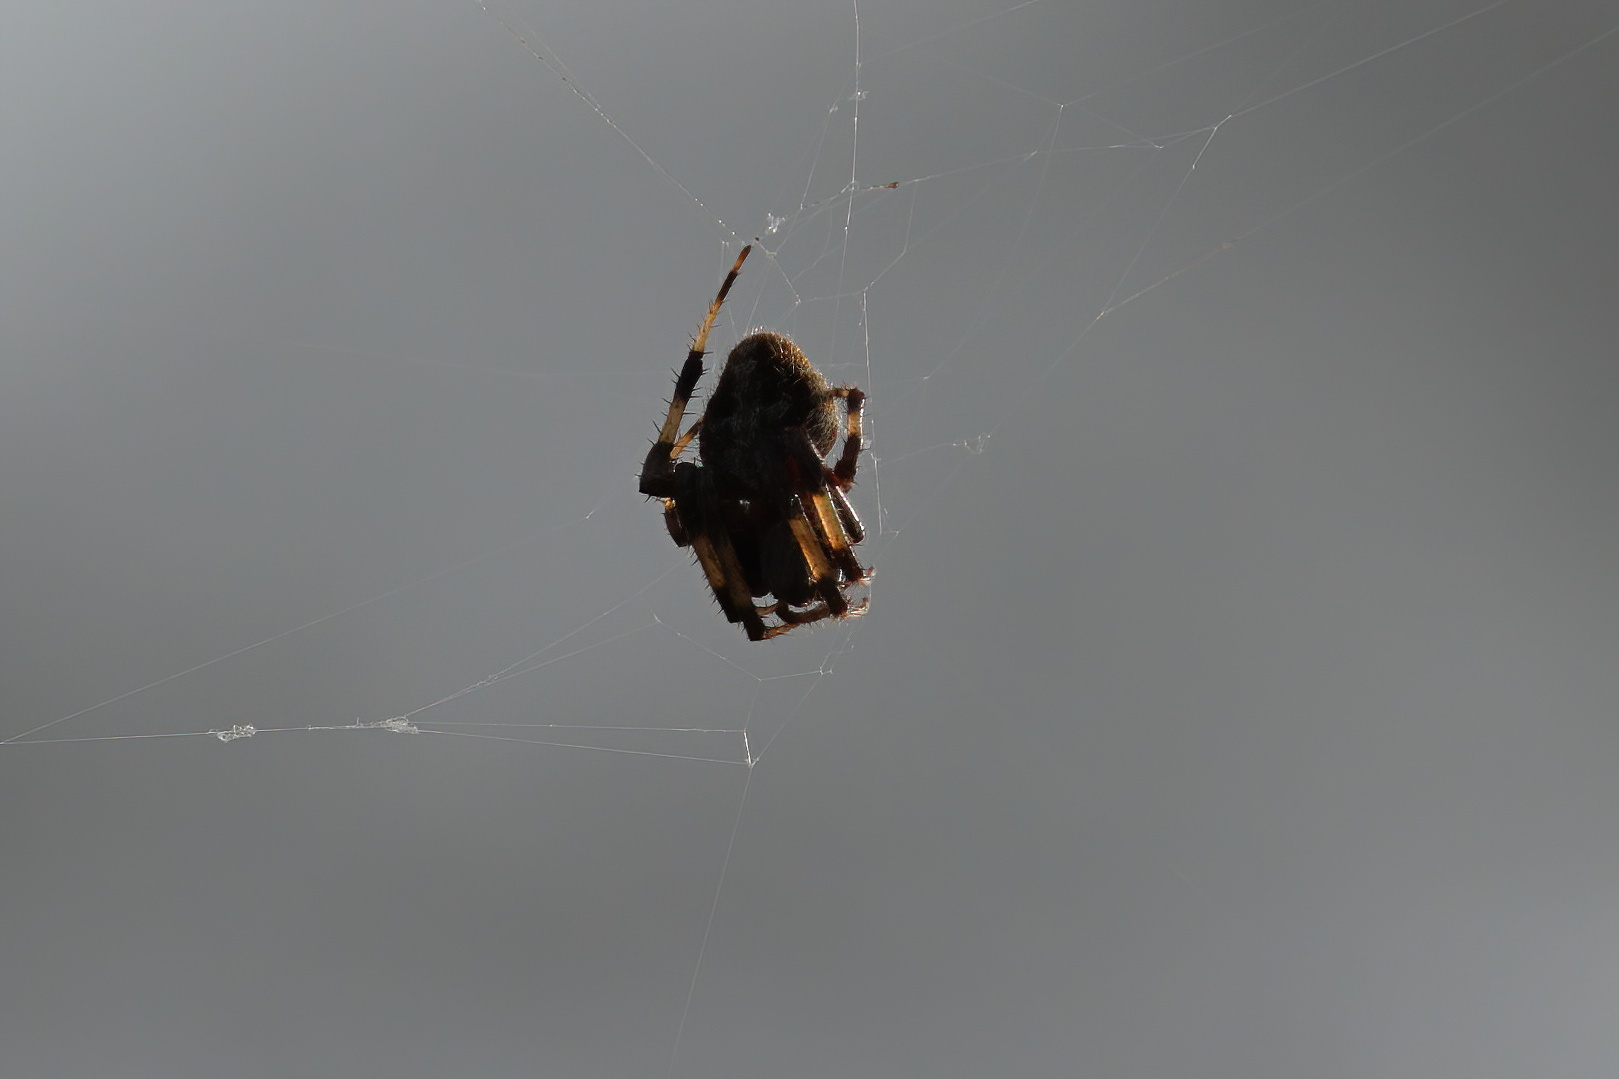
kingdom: Animalia
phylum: Arthropoda
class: Arachnida
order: Araneae
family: Araneidae
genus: Neoscona
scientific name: Neoscona crucifera
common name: Spotted orbweaver
